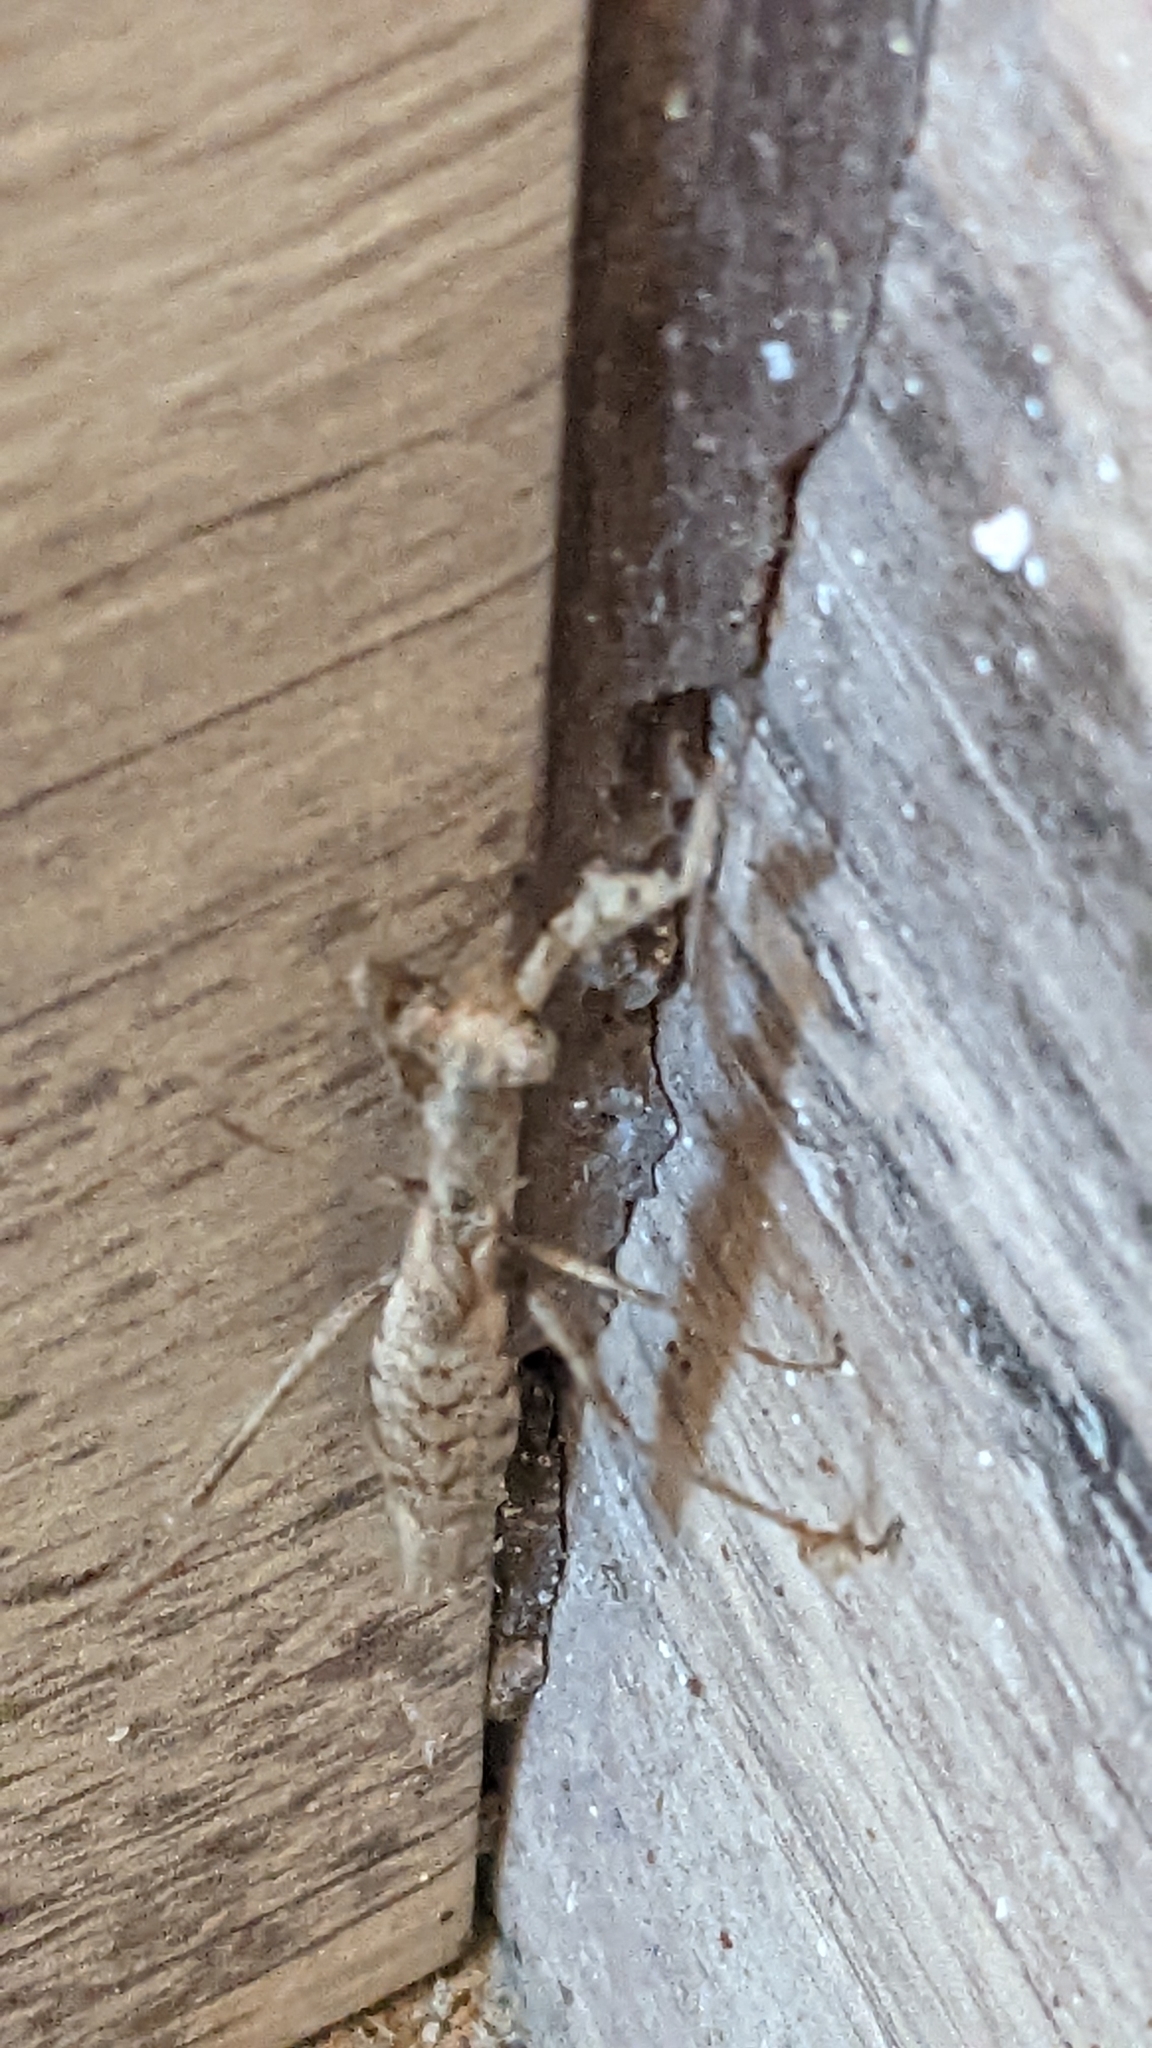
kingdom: Animalia
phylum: Arthropoda
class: Insecta
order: Mantodea
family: Amelidae
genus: Ameles
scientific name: Ameles heldreichi
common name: Heldreich's dwarf mantis
